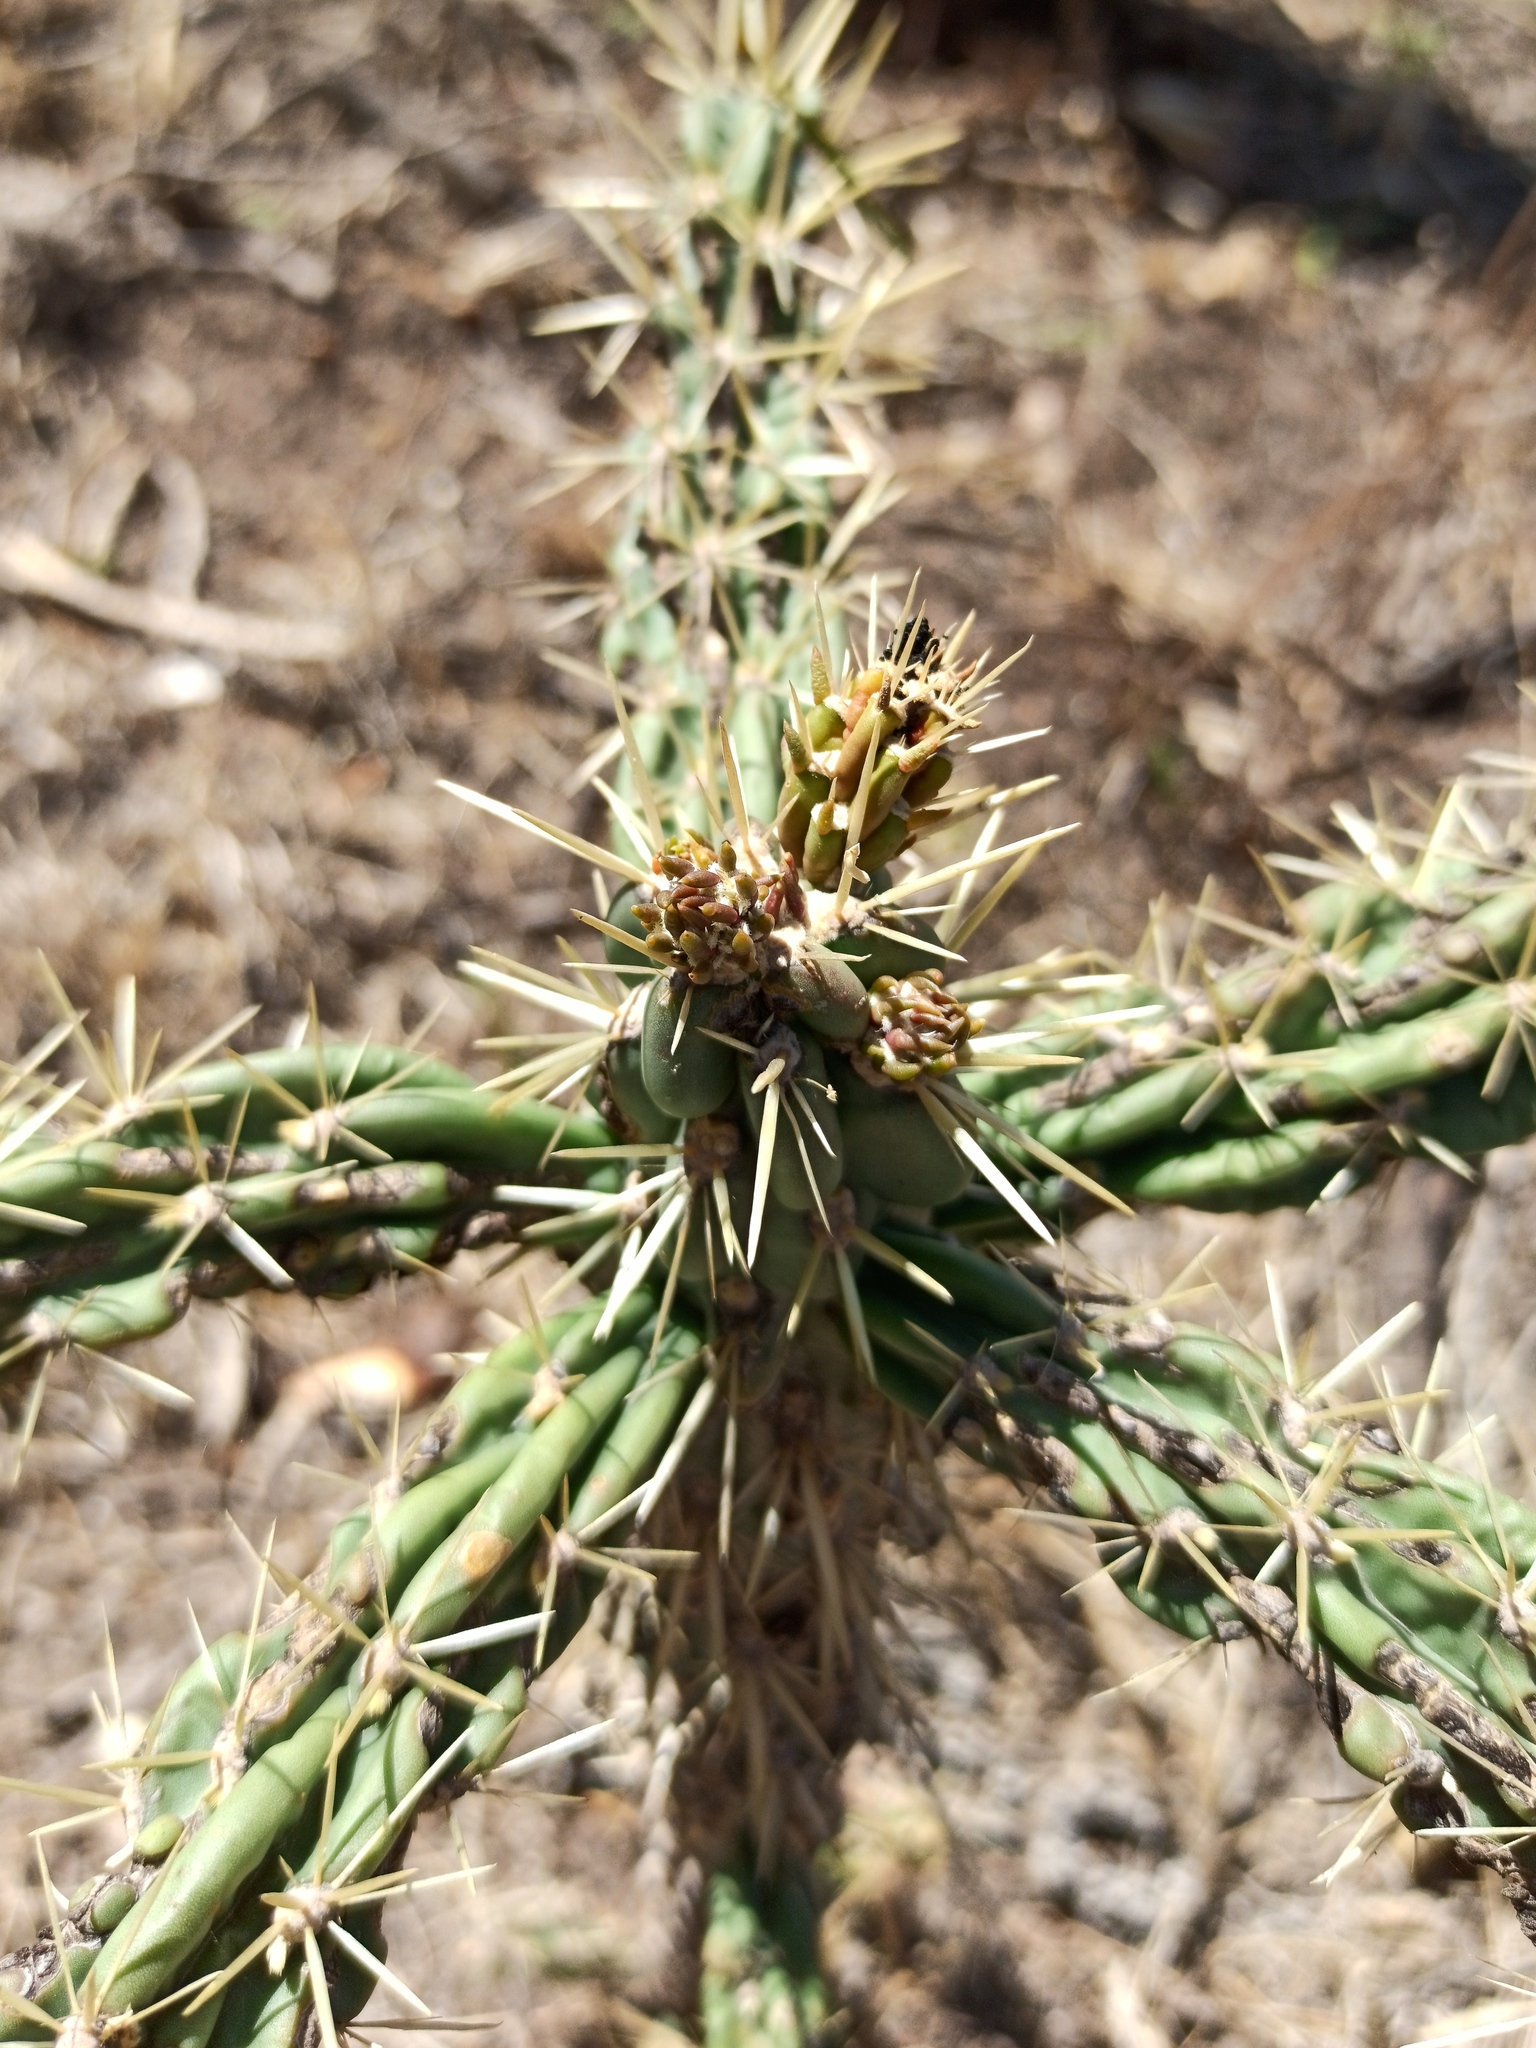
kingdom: Plantae
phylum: Tracheophyta
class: Magnoliopsida
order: Caryophyllales
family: Cactaceae
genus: Cylindropuntia
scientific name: Cylindropuntia imbricata
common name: Candelabrum cactus
